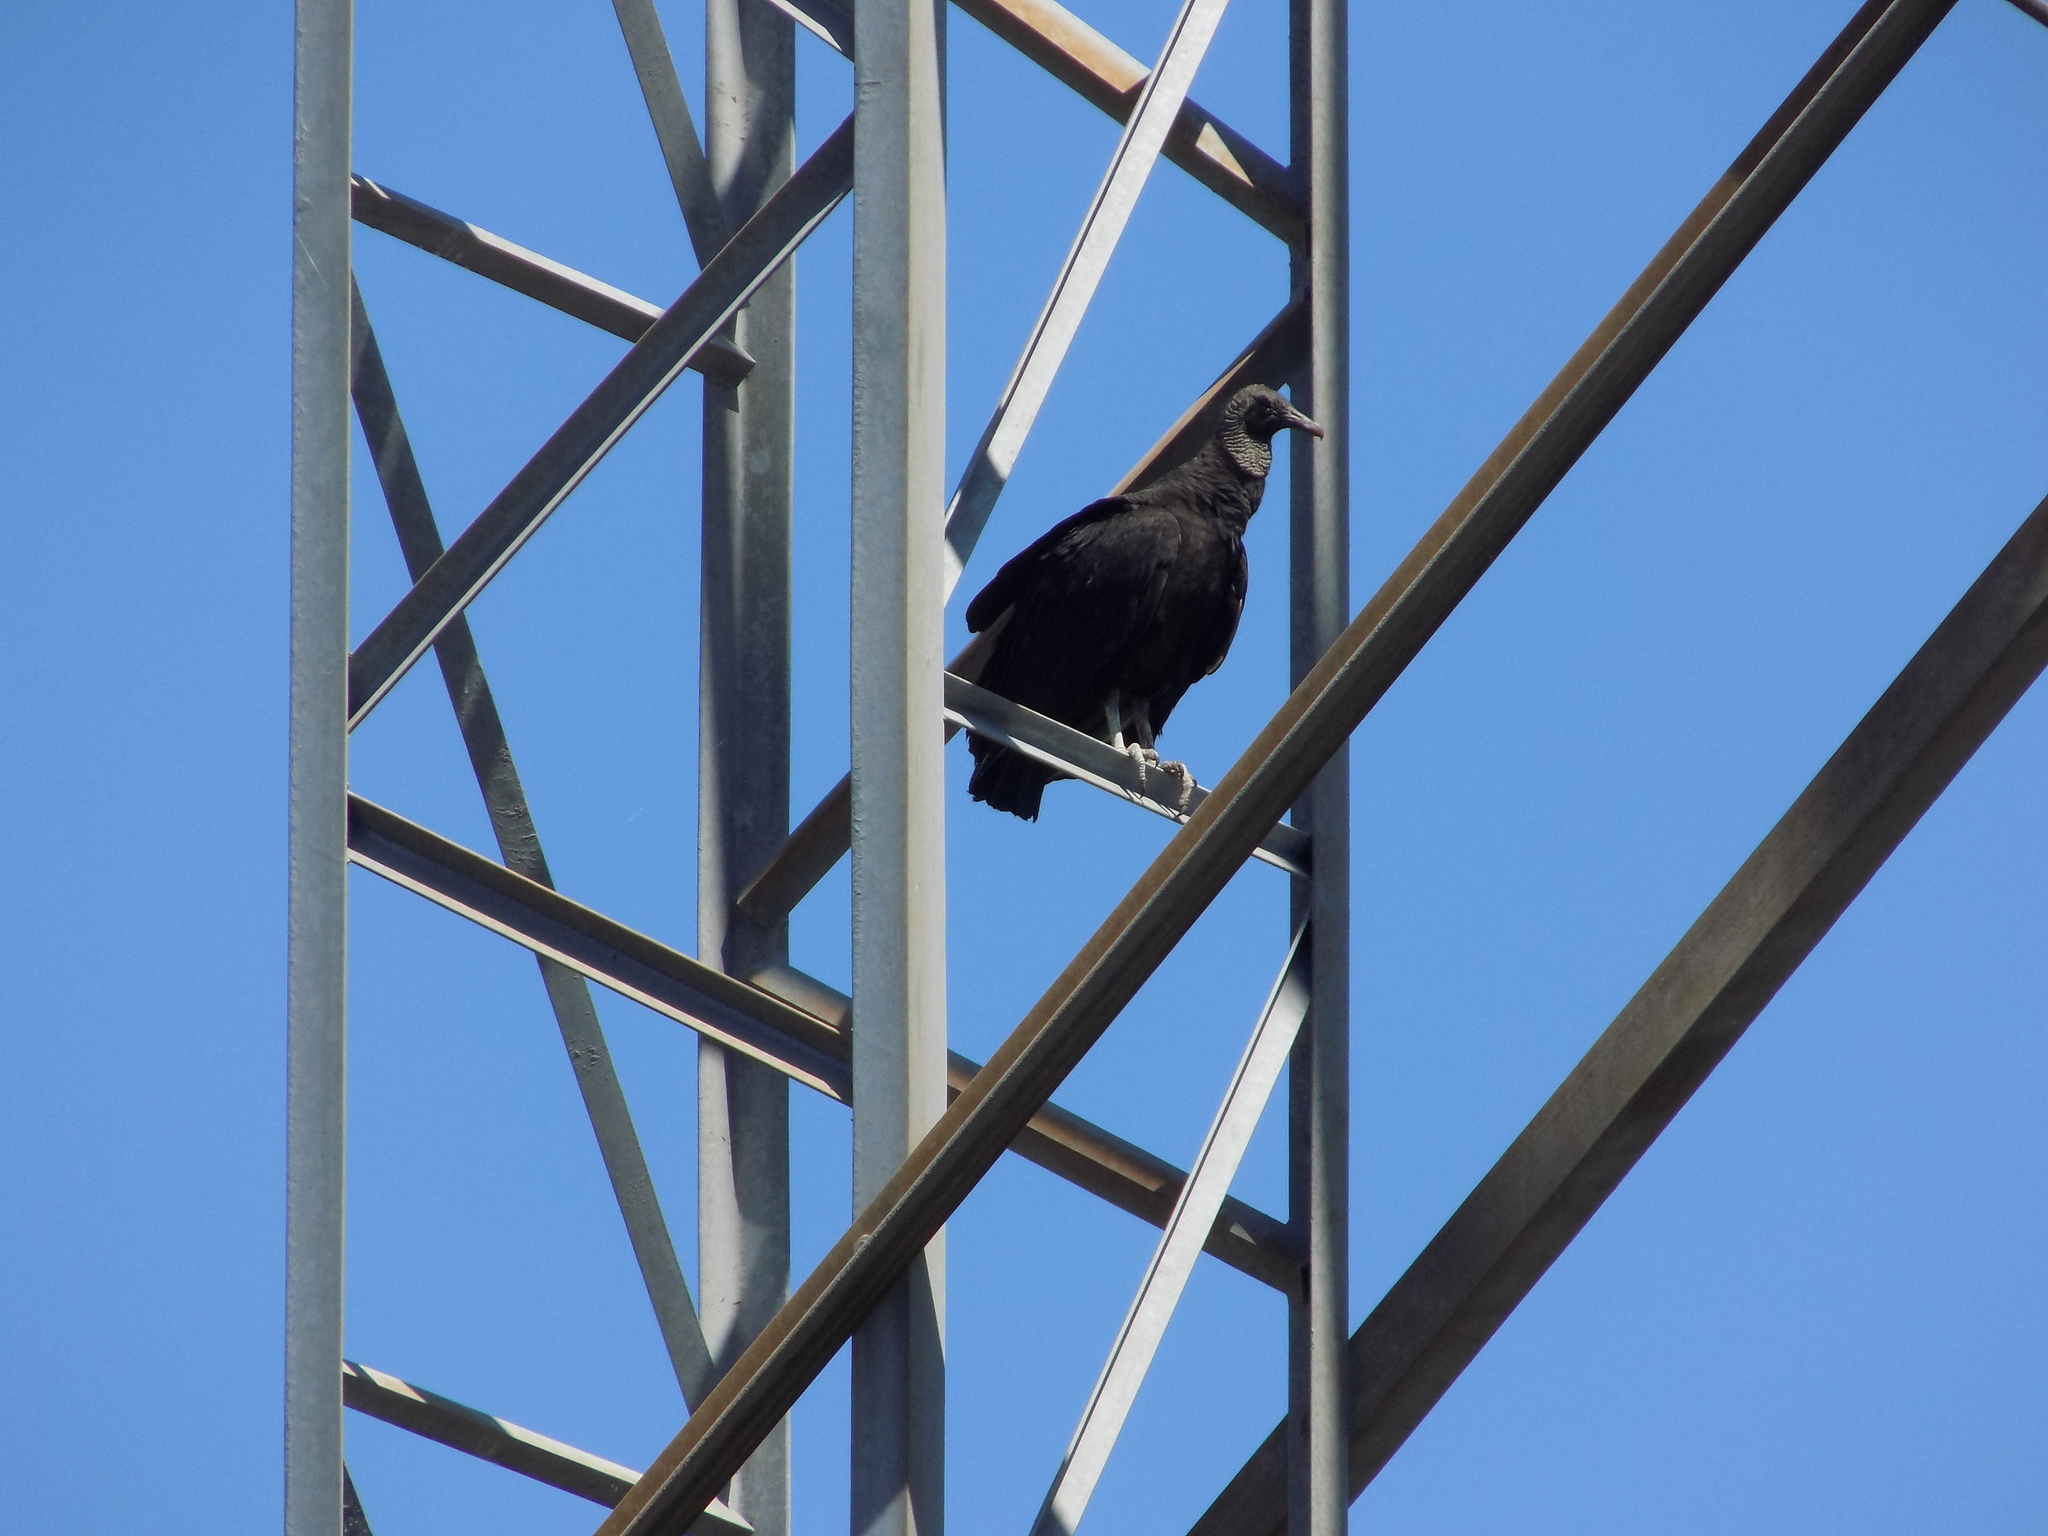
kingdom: Animalia
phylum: Chordata
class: Aves
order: Accipitriformes
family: Cathartidae
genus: Coragyps
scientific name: Coragyps atratus
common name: Black vulture
